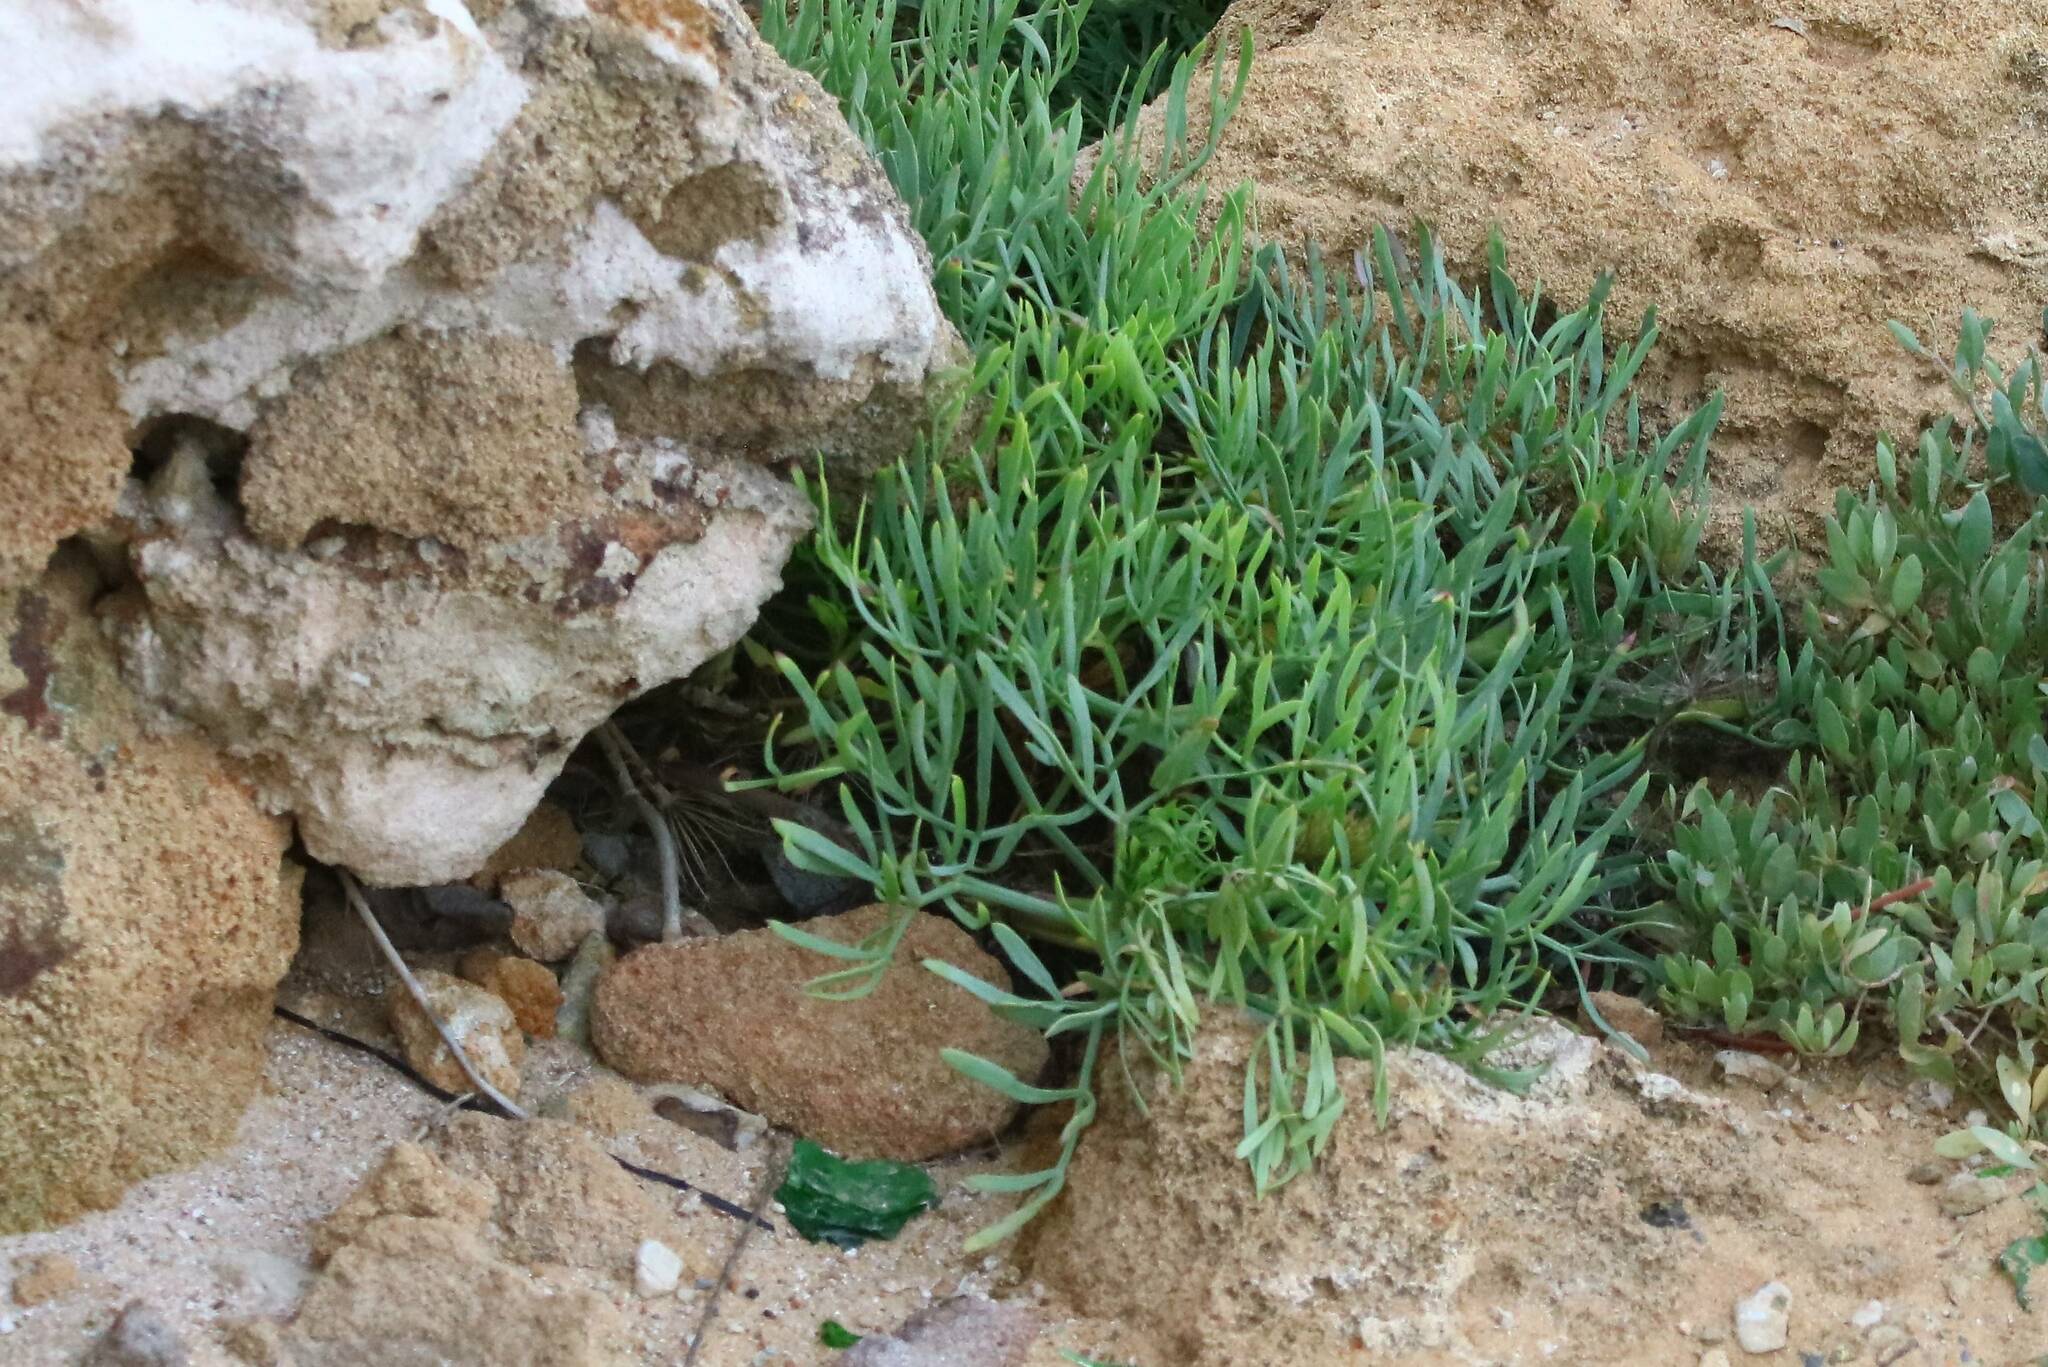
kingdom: Plantae
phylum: Tracheophyta
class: Magnoliopsida
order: Apiales
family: Apiaceae
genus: Crithmum
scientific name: Crithmum maritimum
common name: Rock samphire
